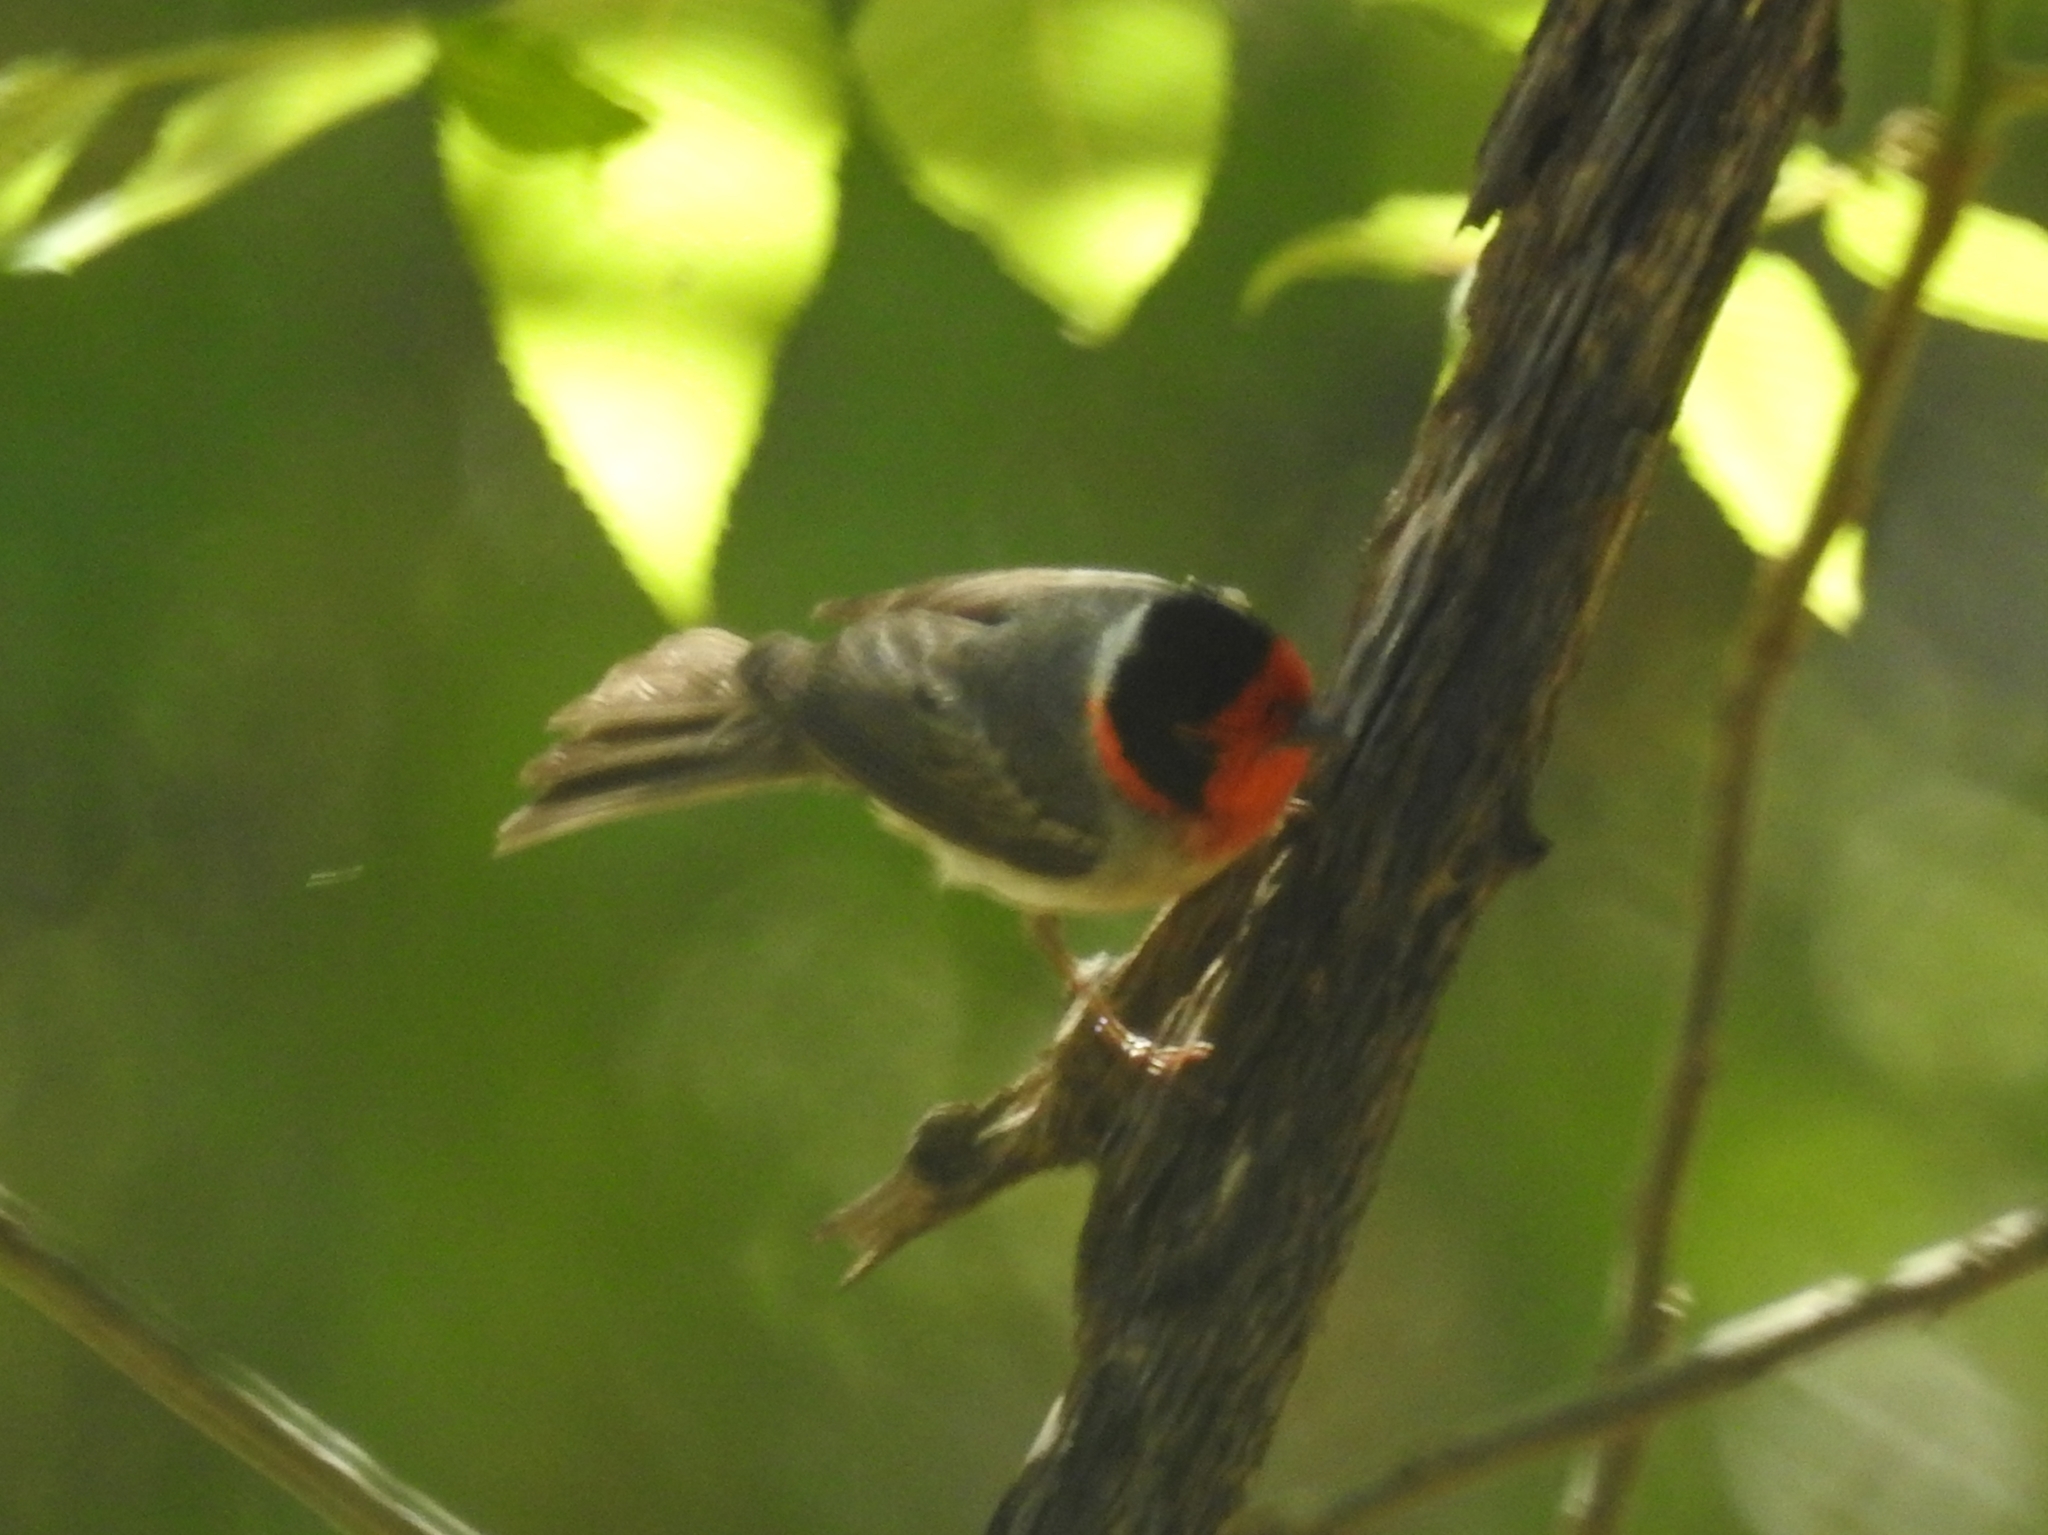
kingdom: Animalia
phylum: Chordata
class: Aves
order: Passeriformes
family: Parulidae
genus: Cardellina
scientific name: Cardellina rubrifrons
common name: Red-faced warbler
